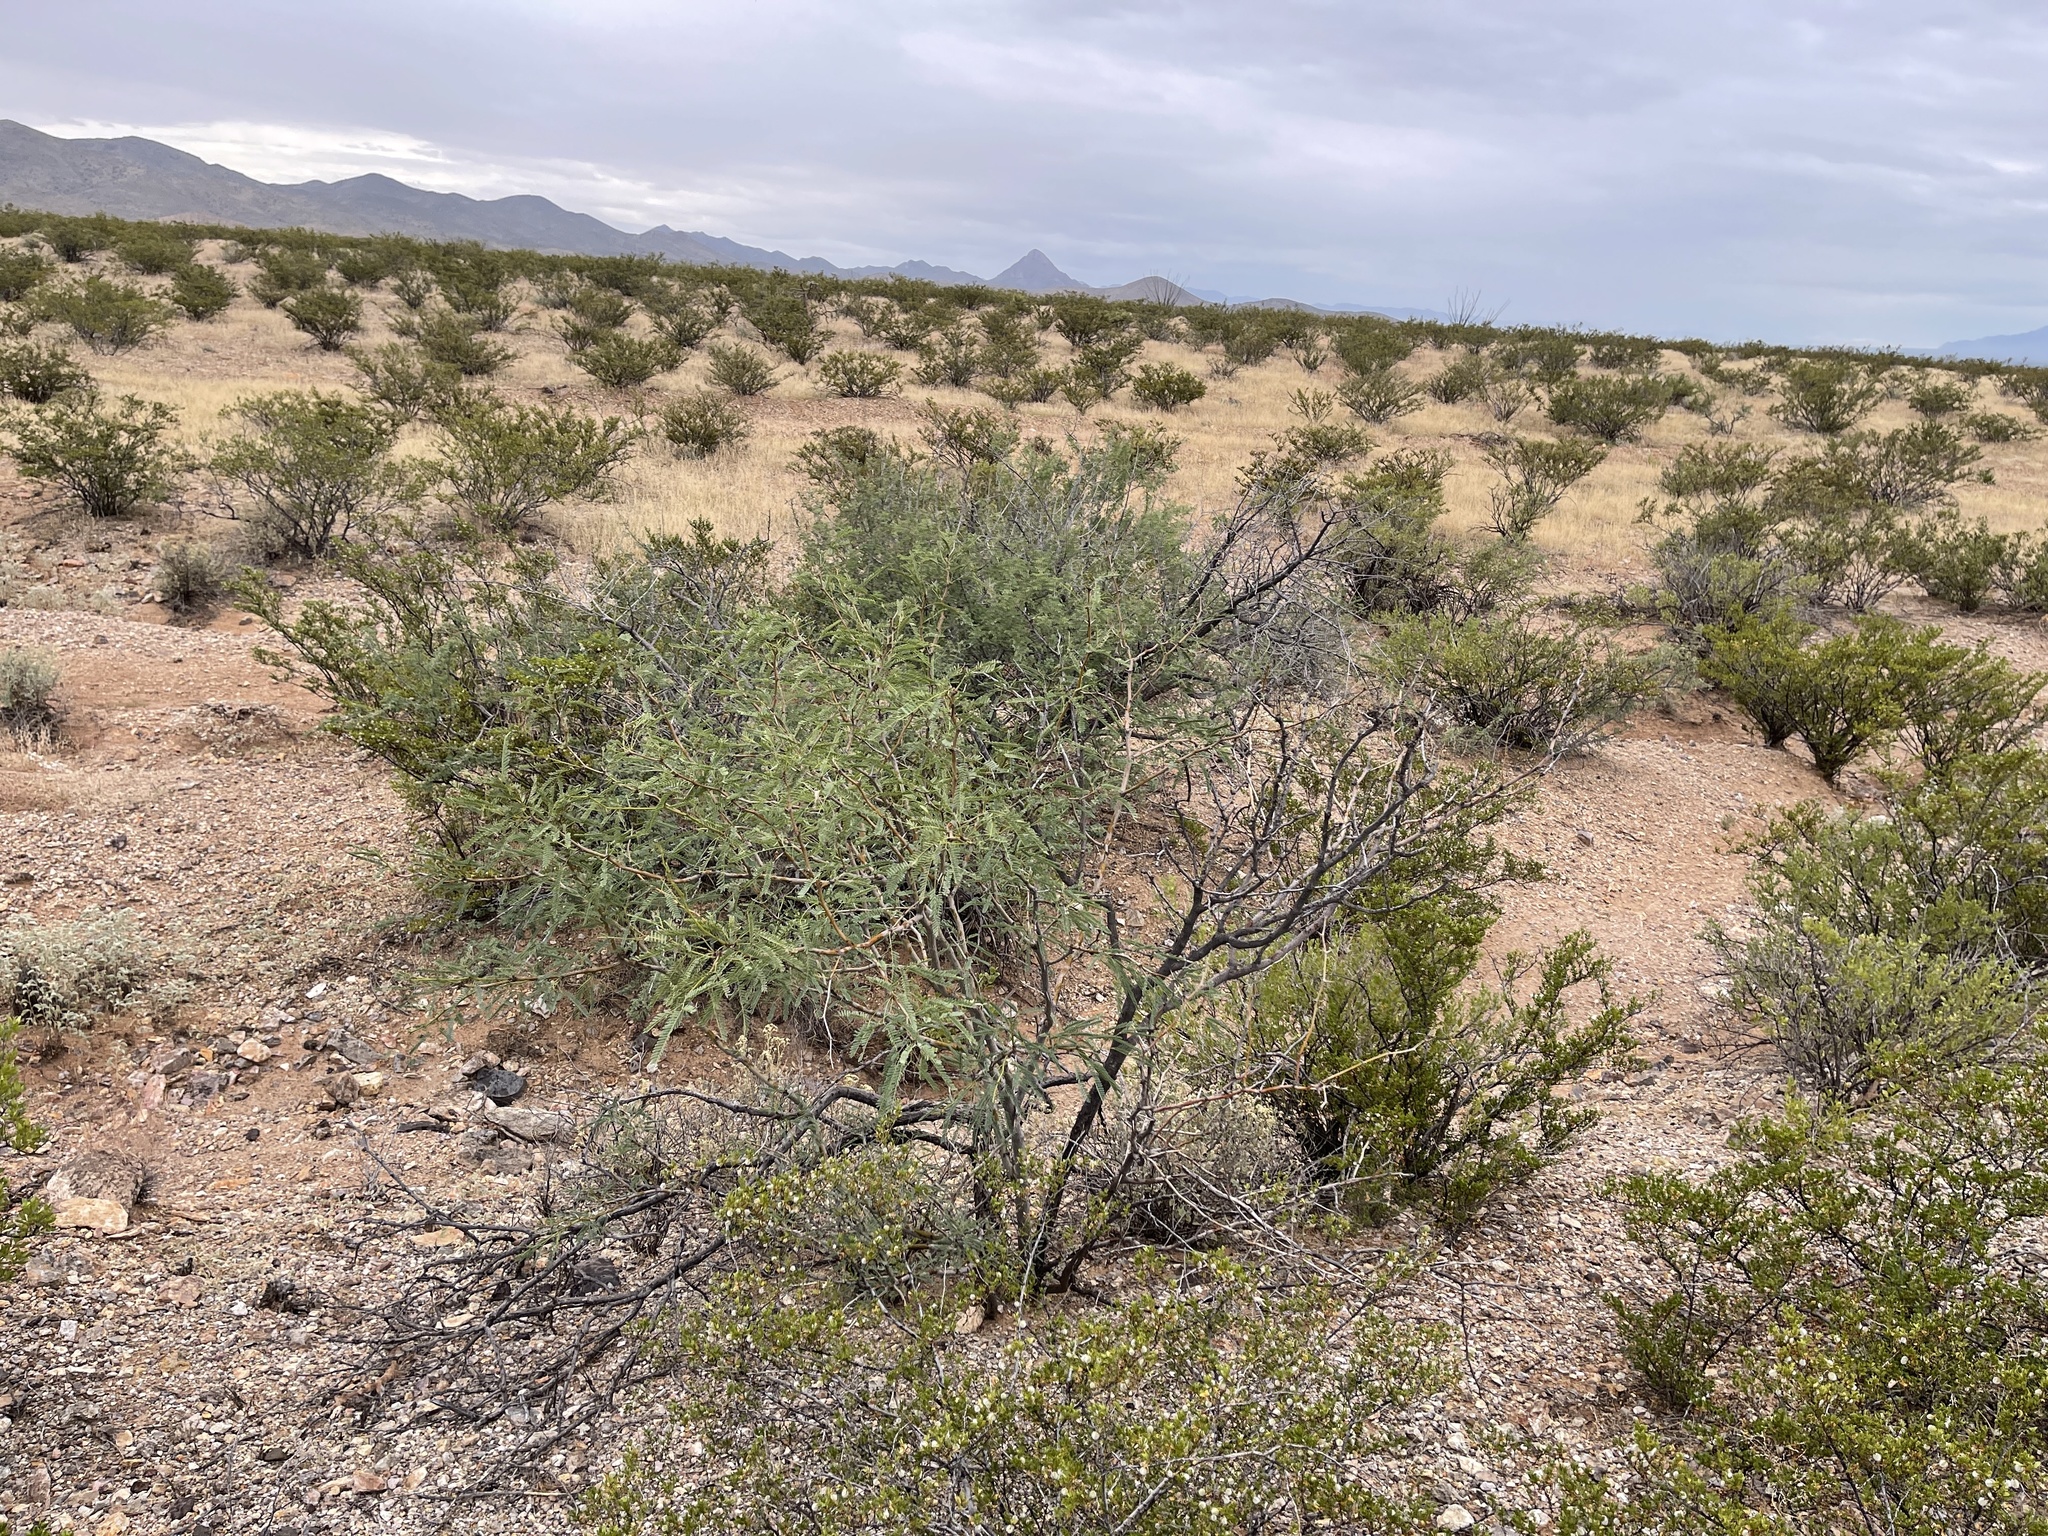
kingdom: Plantae
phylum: Tracheophyta
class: Magnoliopsida
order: Fabales
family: Fabaceae
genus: Prosopis
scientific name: Prosopis glandulosa
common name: Honey mesquite
